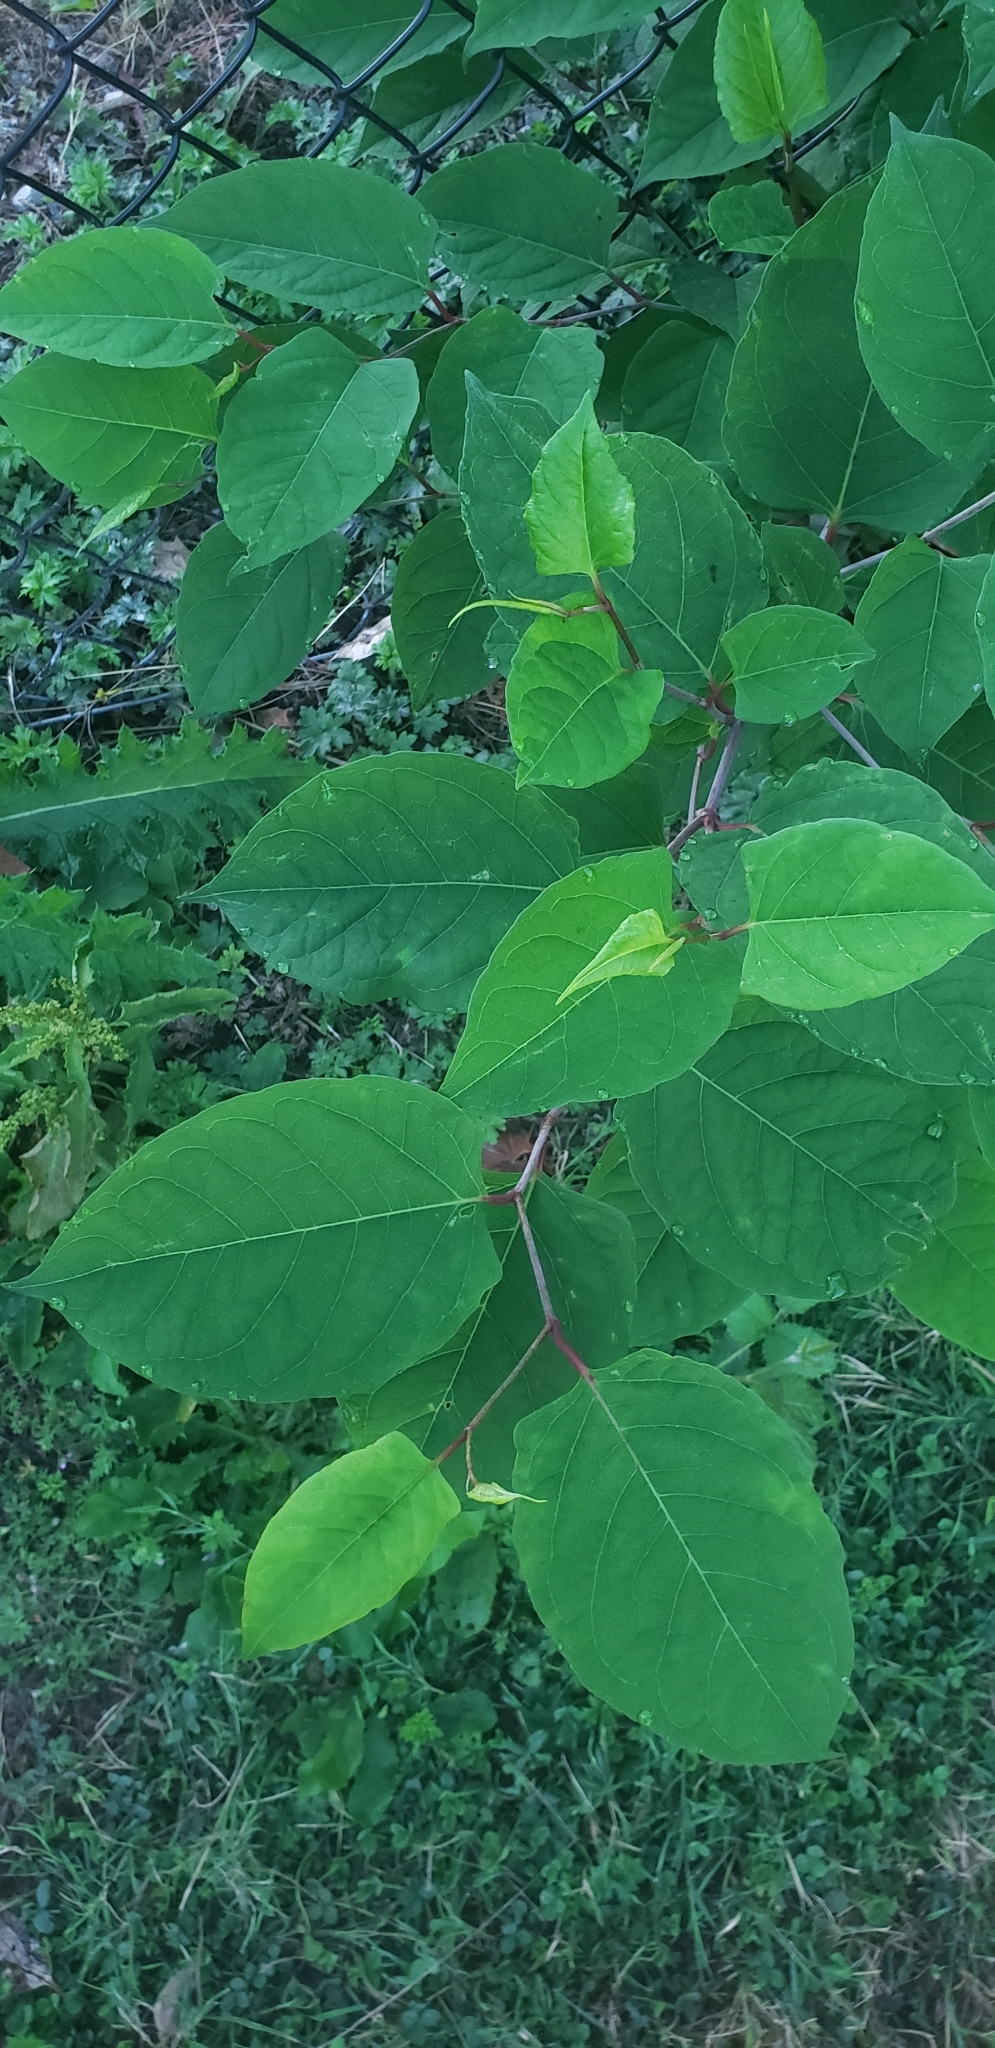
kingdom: Plantae
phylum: Tracheophyta
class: Magnoliopsida
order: Caryophyllales
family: Polygonaceae
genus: Reynoutria
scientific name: Reynoutria japonica
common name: Japanese knotweed
